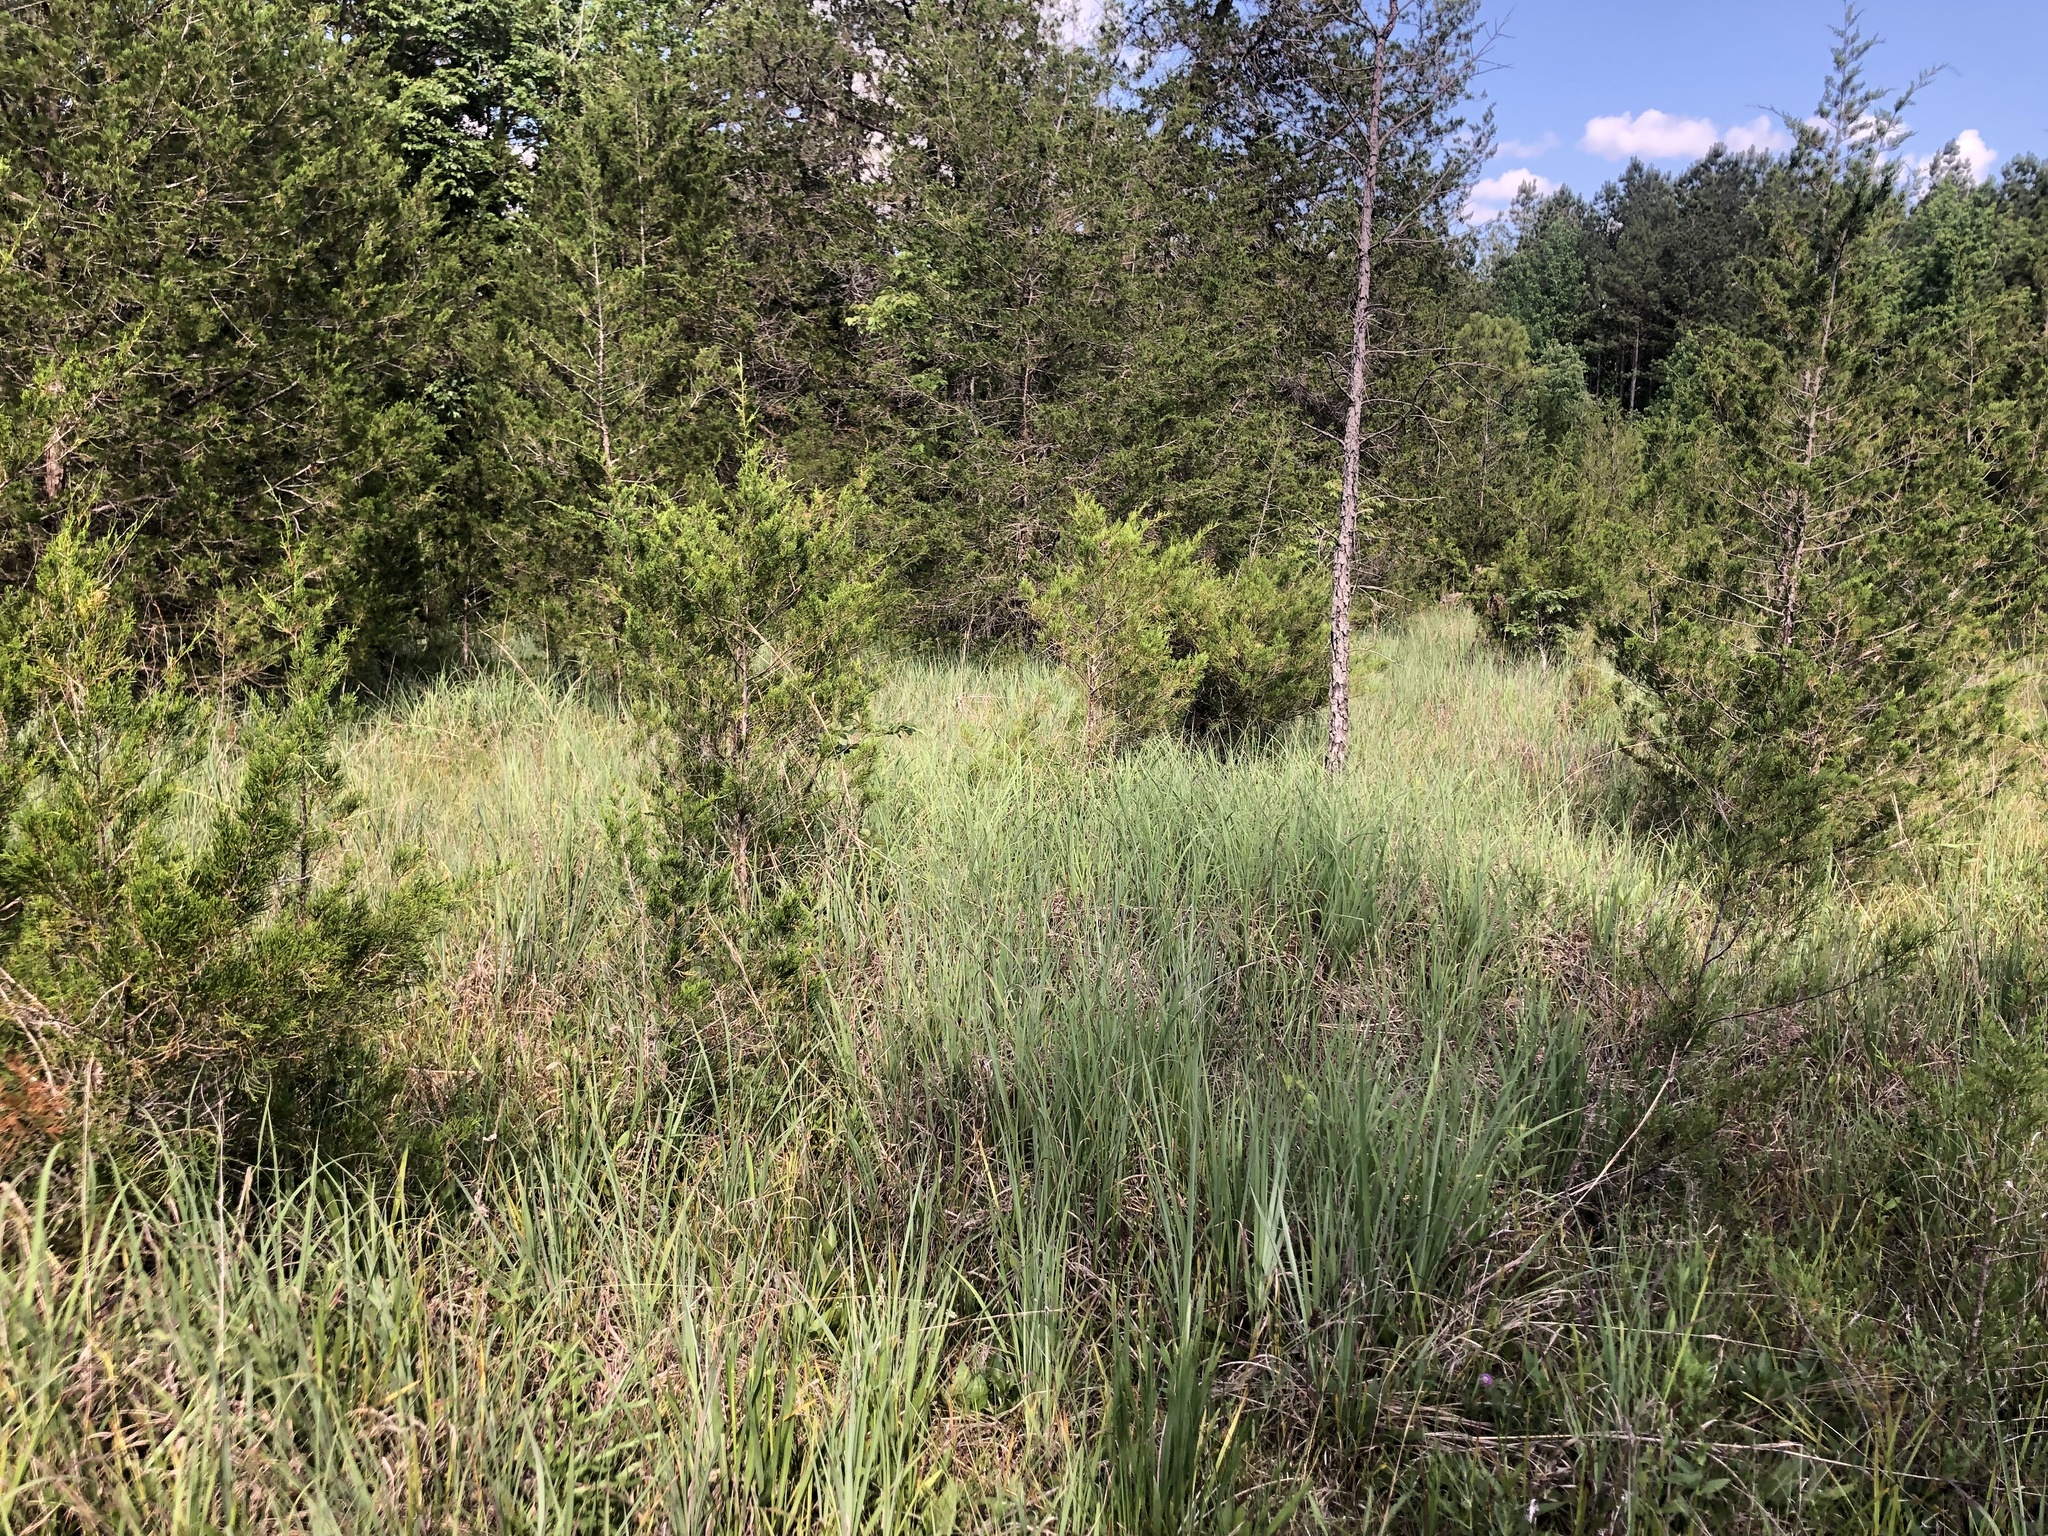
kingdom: Plantae
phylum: Tracheophyta
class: Liliopsida
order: Poales
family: Poaceae
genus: Andropogon
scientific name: Andropogon gerardi
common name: Big bluestem
